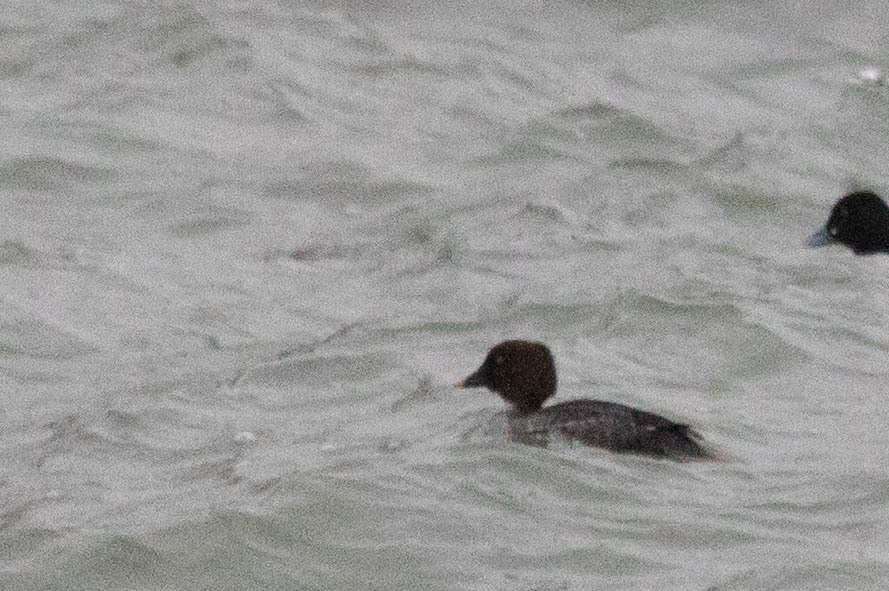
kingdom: Animalia
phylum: Chordata
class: Aves
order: Anseriformes
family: Anatidae
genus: Bucephala
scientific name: Bucephala clangula
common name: Common goldeneye
